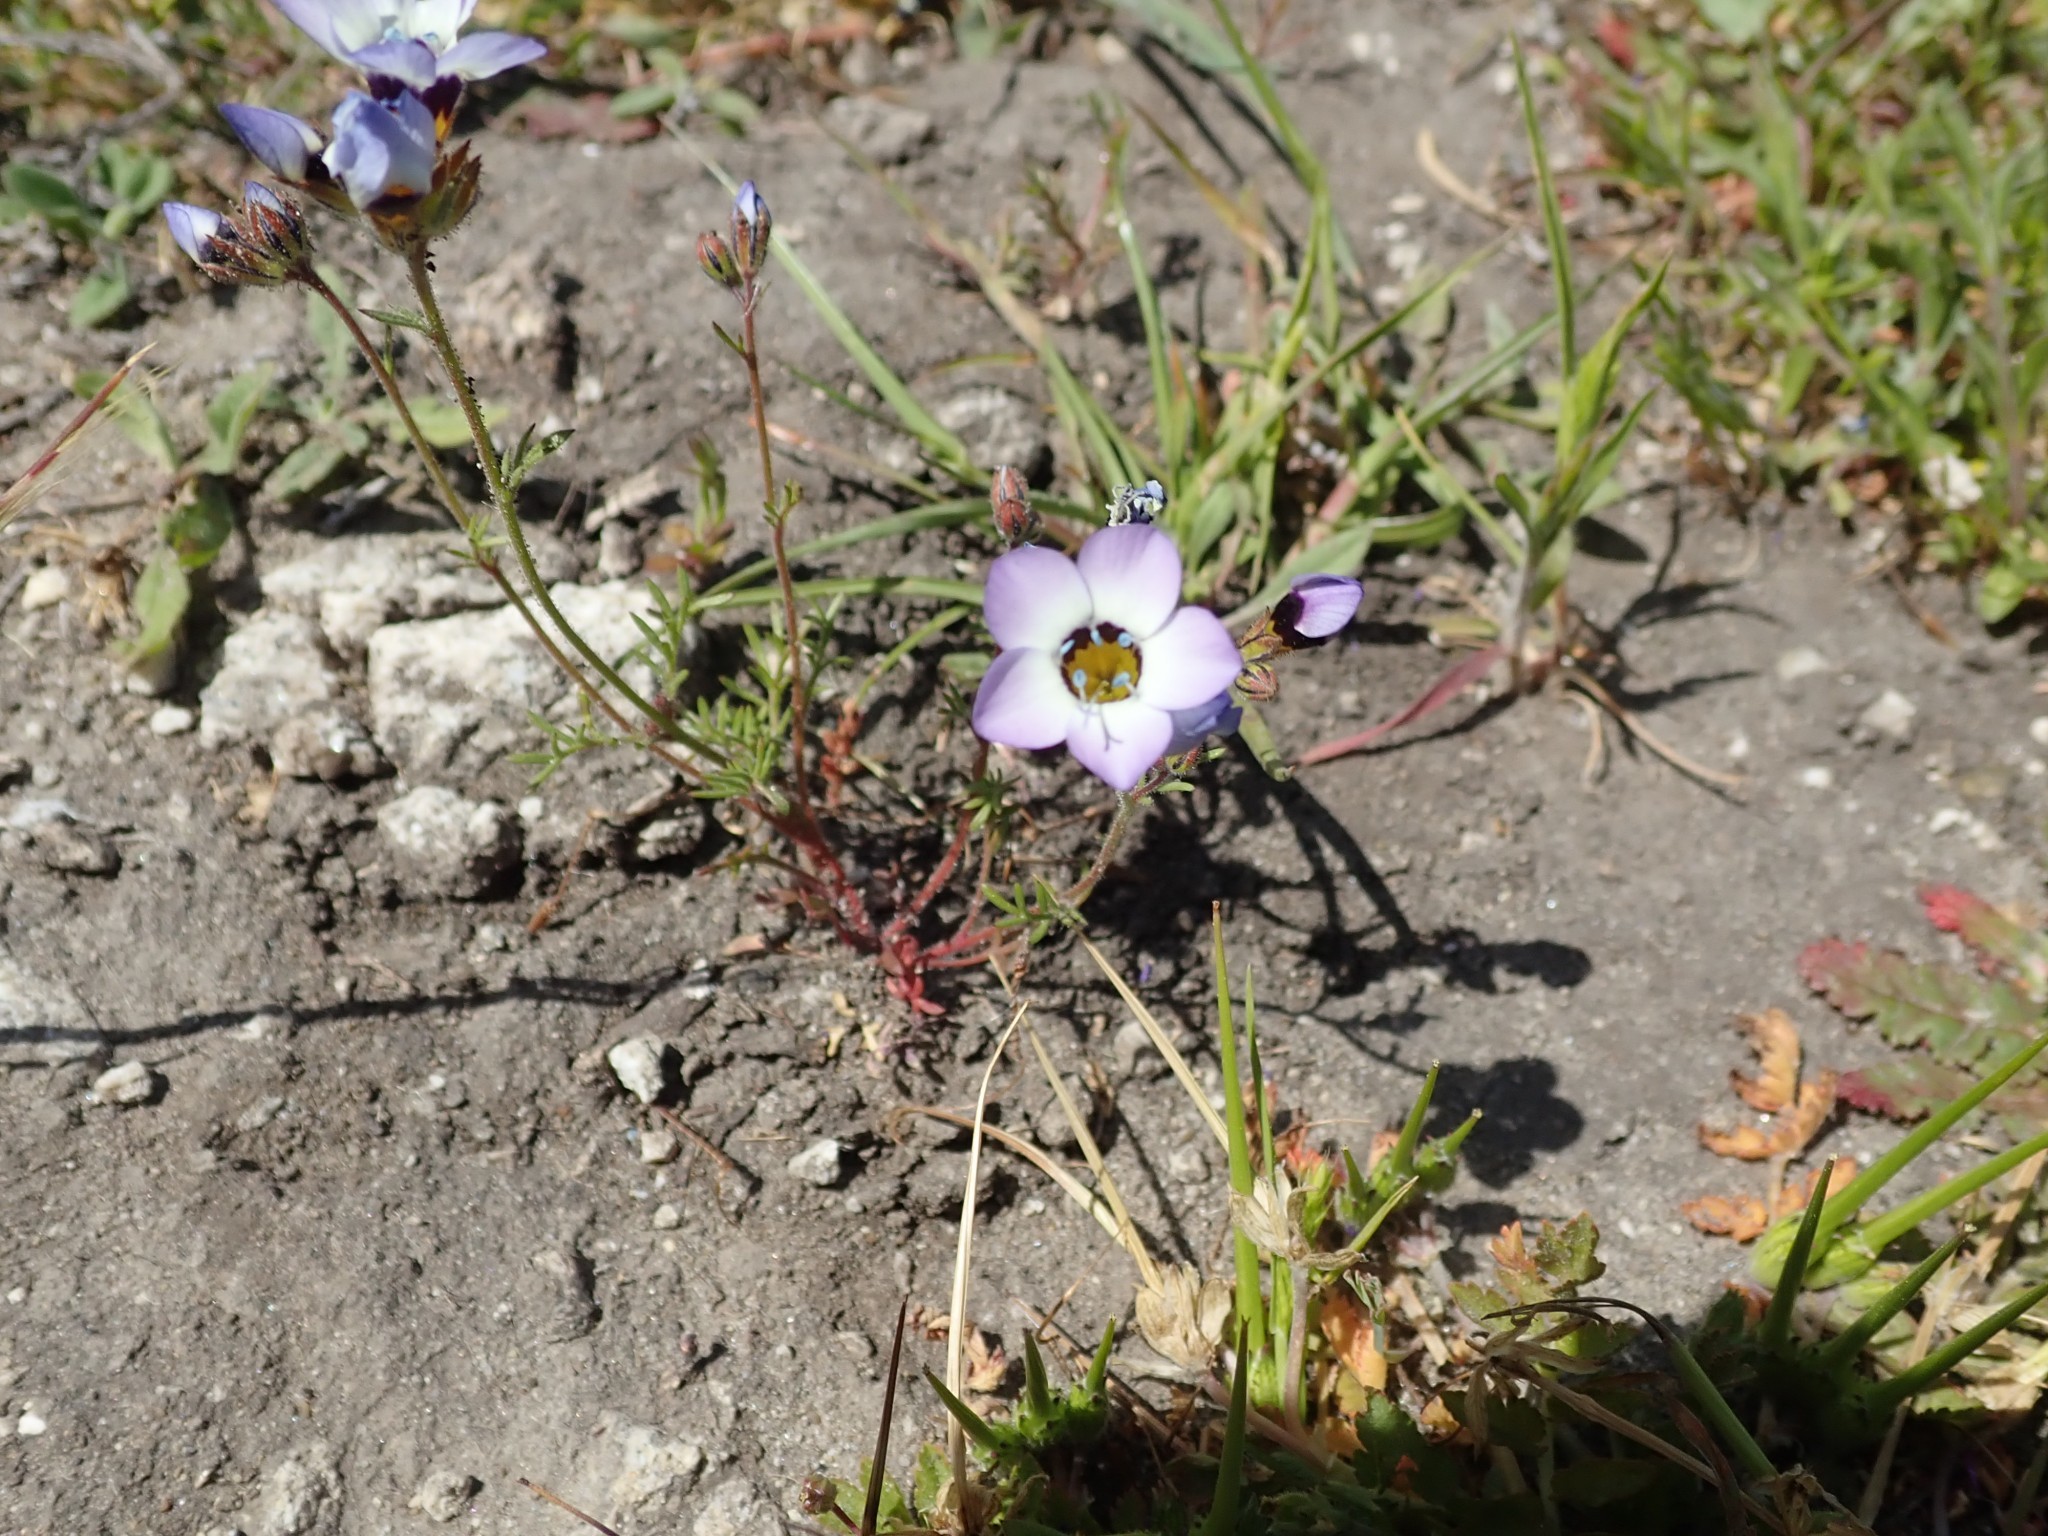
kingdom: Plantae
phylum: Tracheophyta
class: Magnoliopsida
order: Ericales
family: Polemoniaceae
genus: Gilia
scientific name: Gilia tricolor
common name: Bird's-eyes
